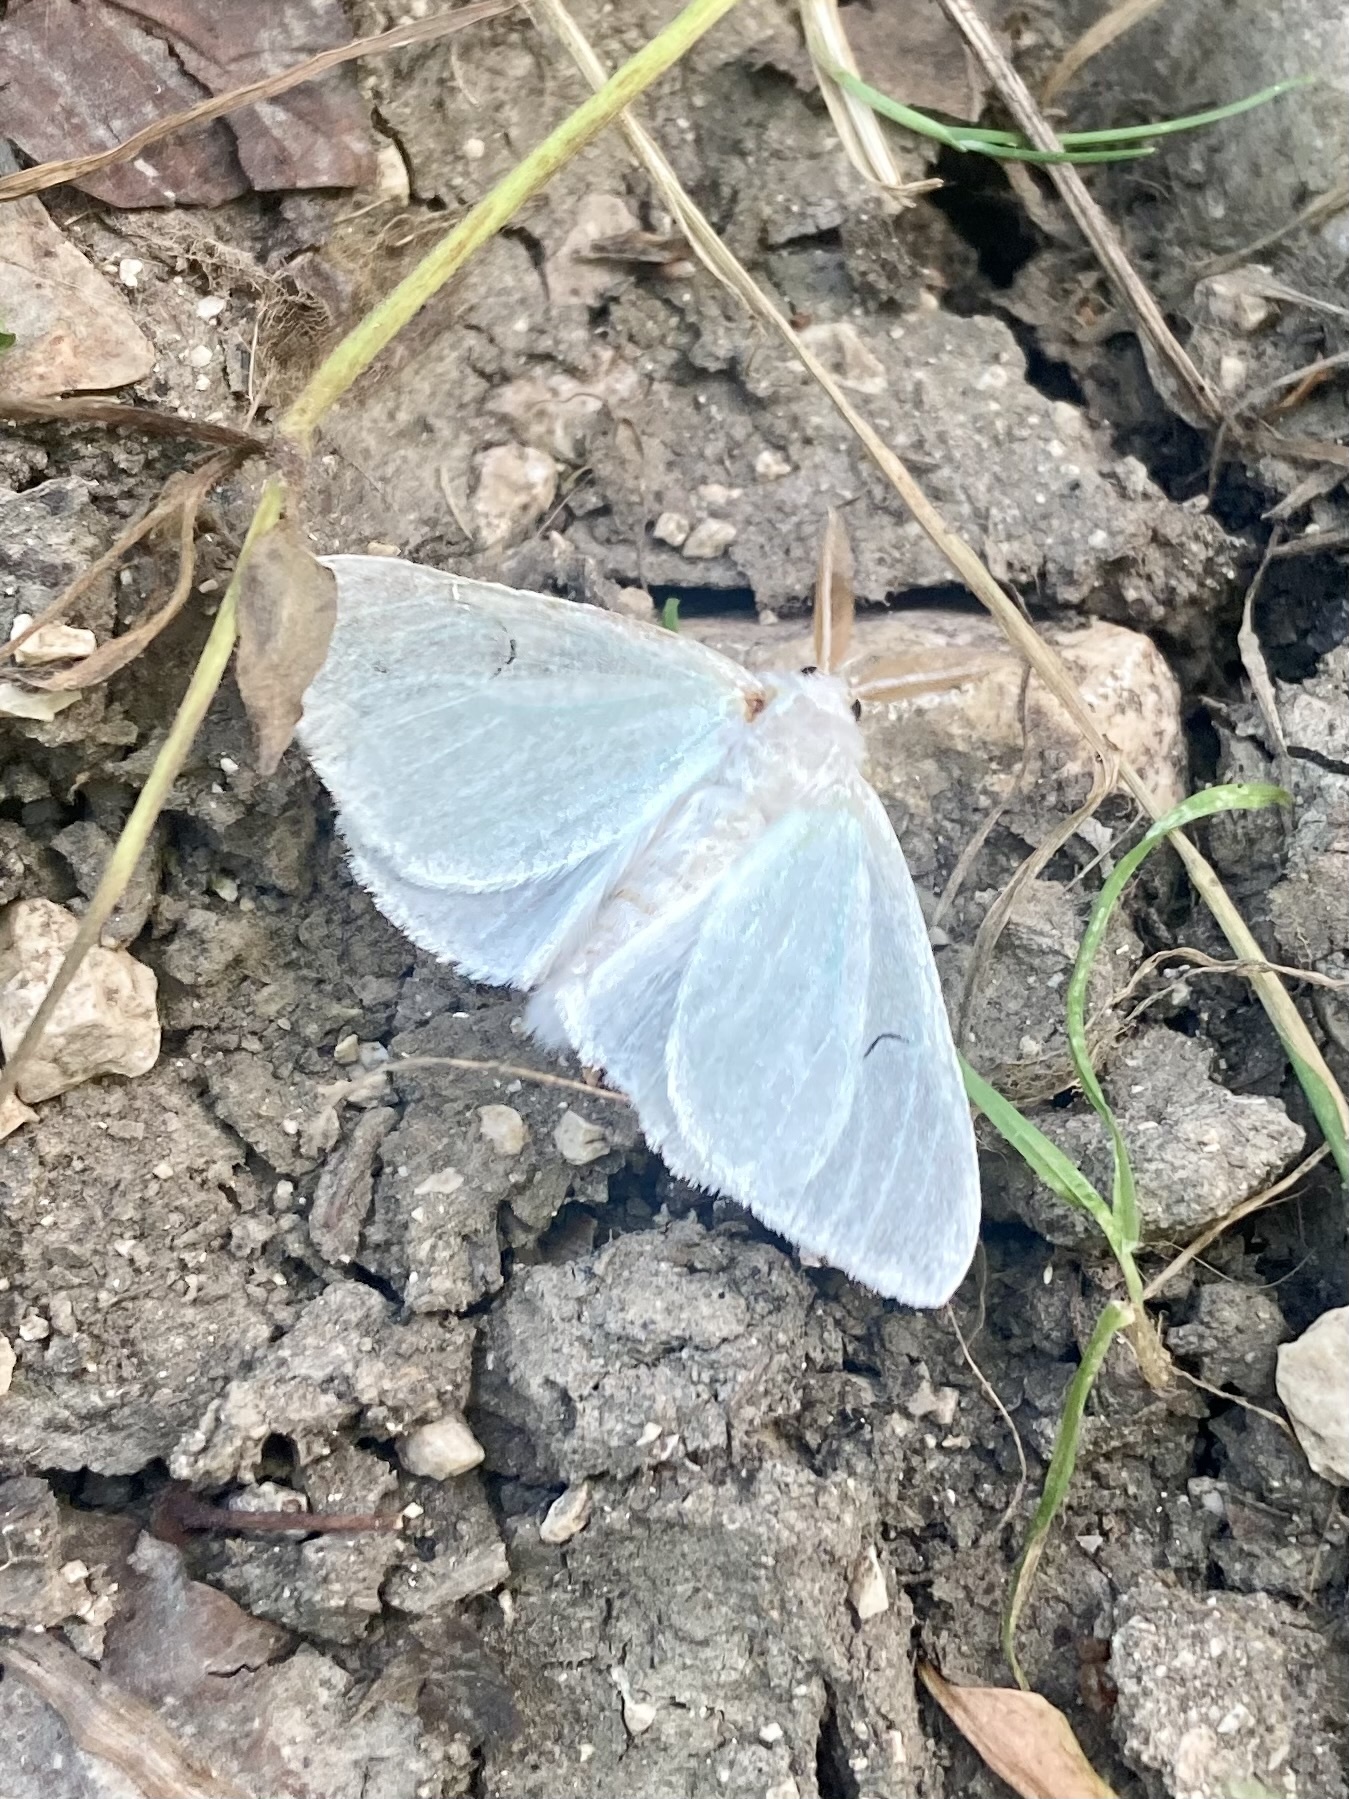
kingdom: Animalia
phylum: Arthropoda
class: Insecta
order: Lepidoptera
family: Erebidae
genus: Arctornis
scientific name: Arctornis l-nigrum
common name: Black v moth
